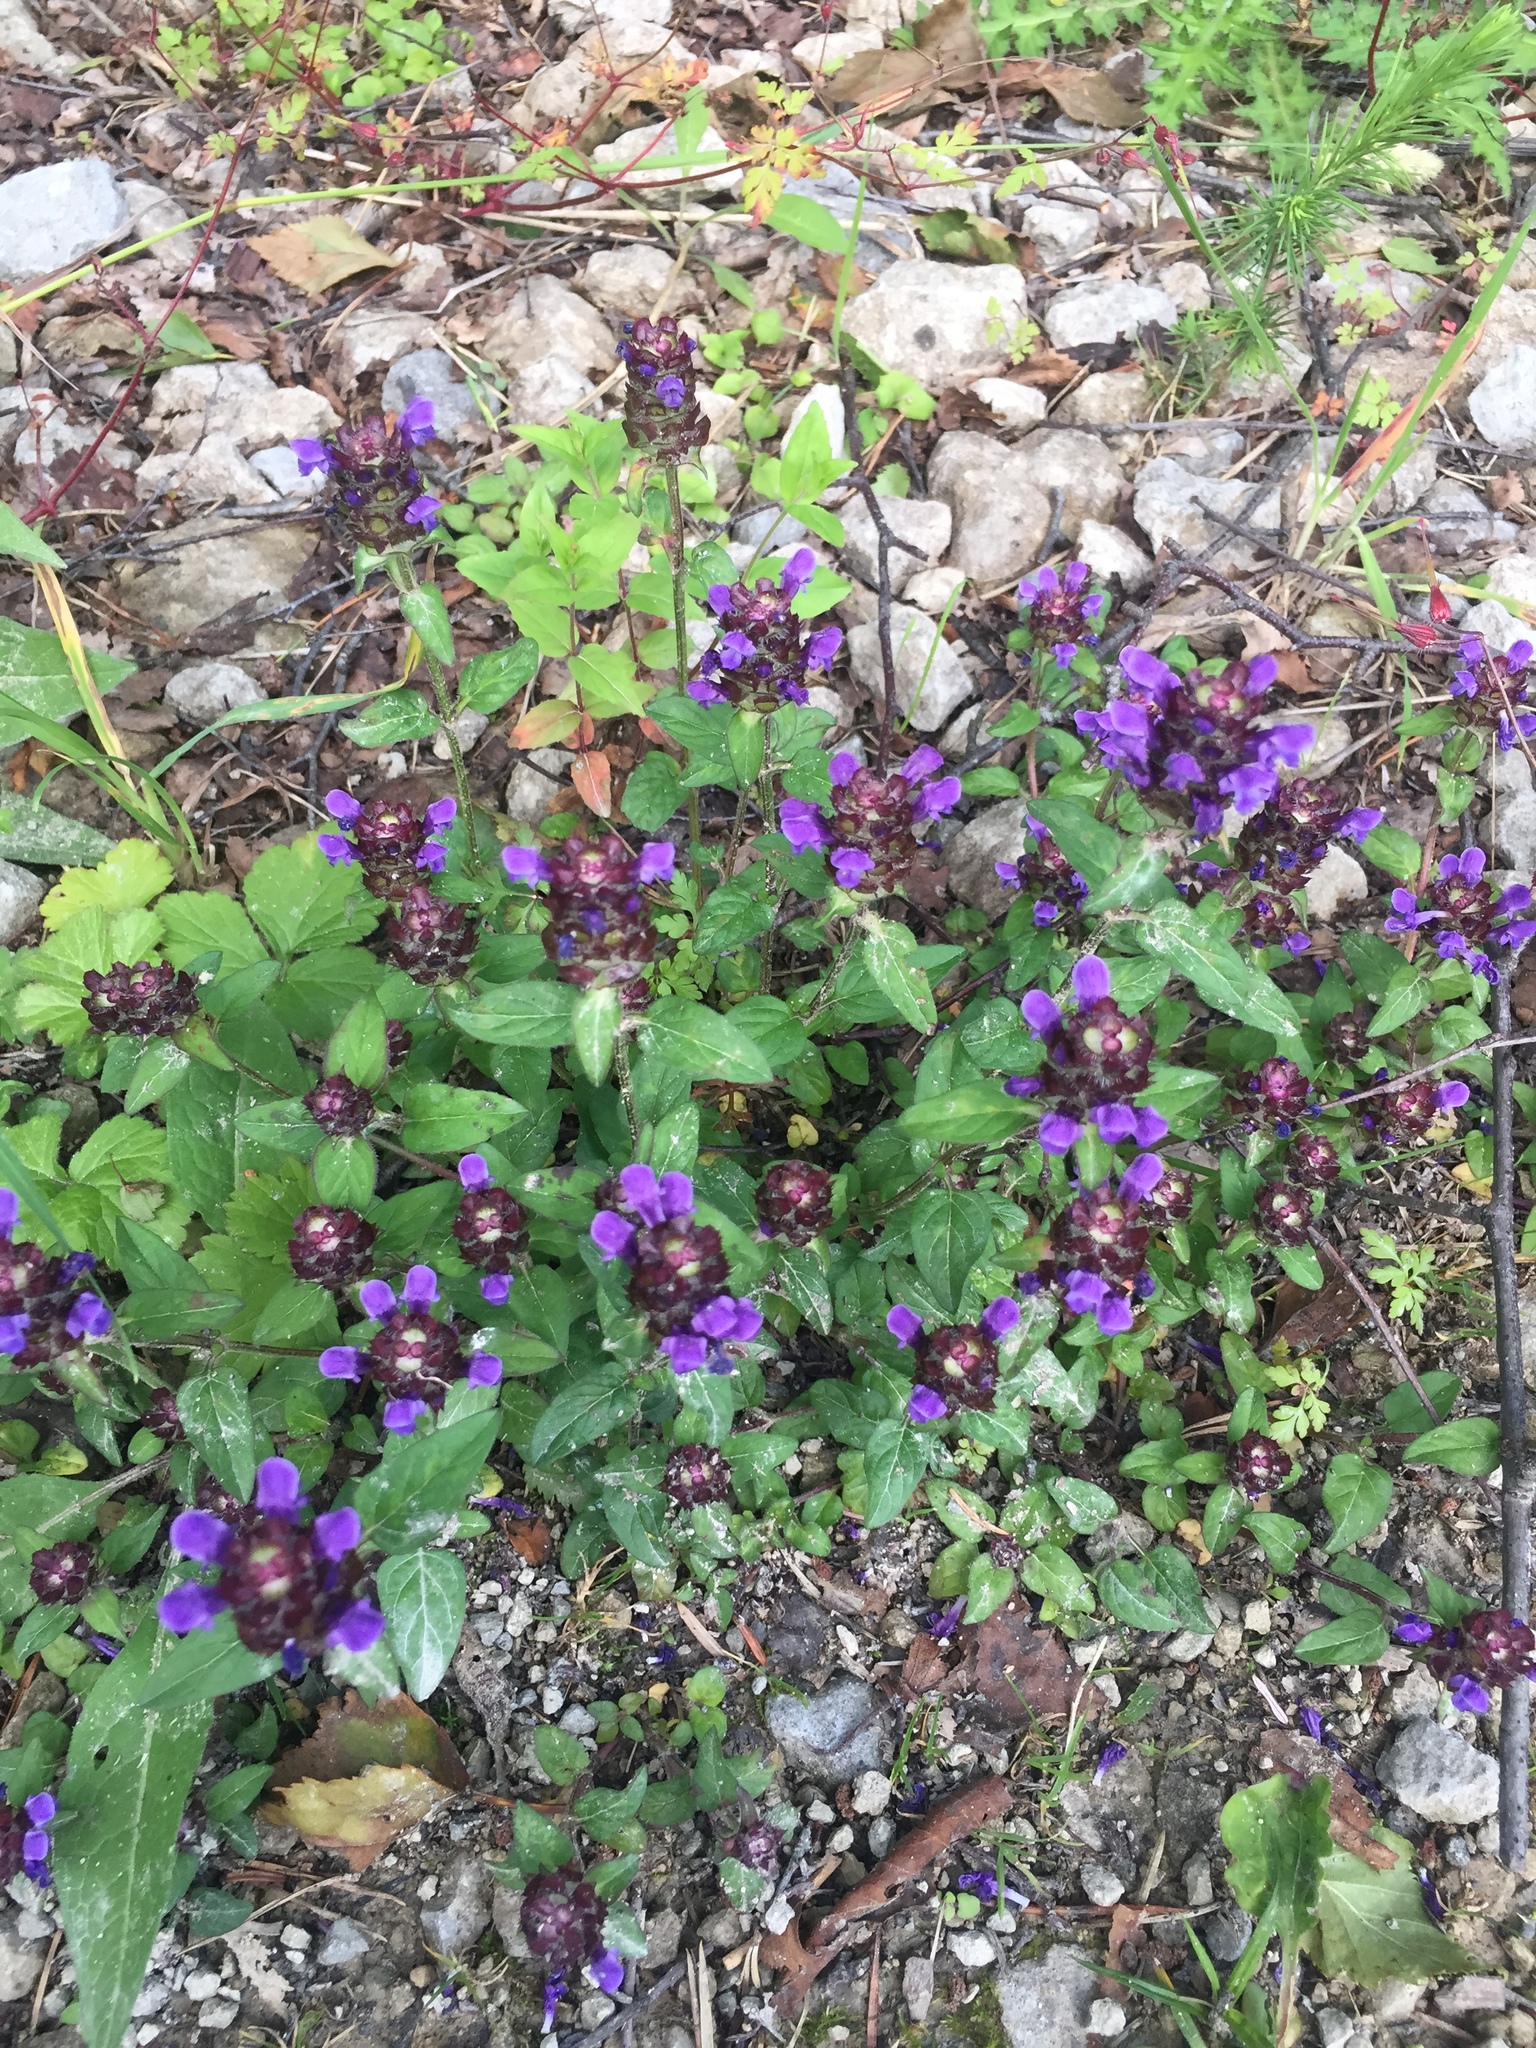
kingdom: Plantae
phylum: Tracheophyta
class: Magnoliopsida
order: Lamiales
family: Lamiaceae
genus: Prunella
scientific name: Prunella vulgaris
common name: Heal-all
